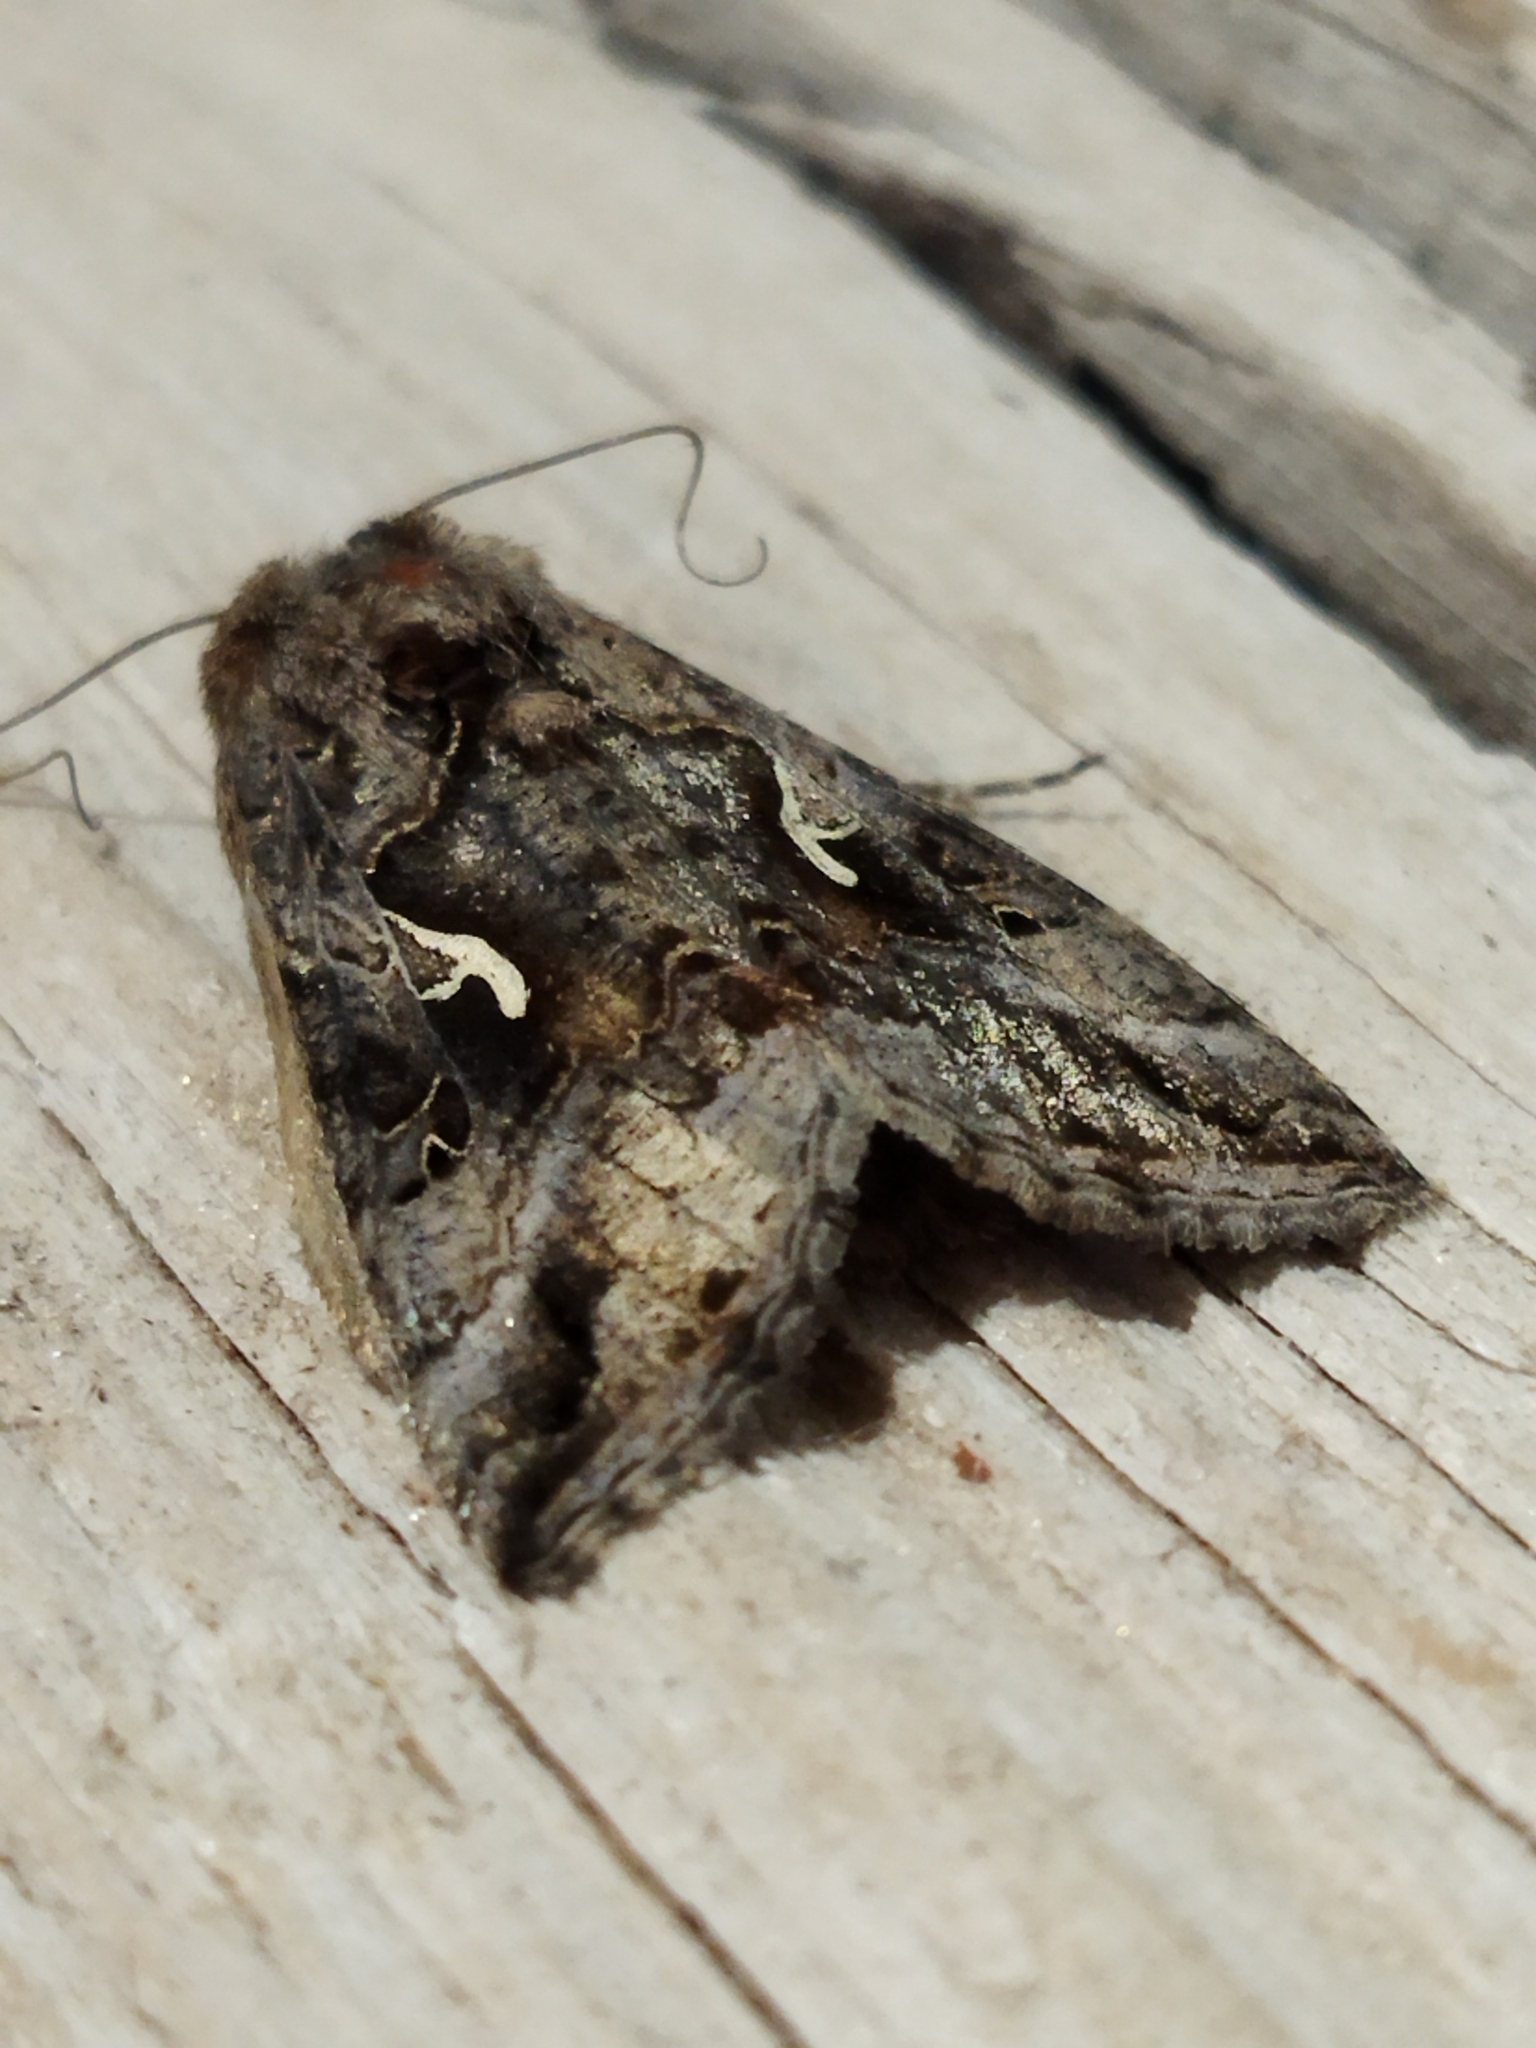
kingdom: Animalia
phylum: Arthropoda
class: Insecta
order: Lepidoptera
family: Noctuidae
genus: Autographa
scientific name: Autographa gamma
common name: Silver y
